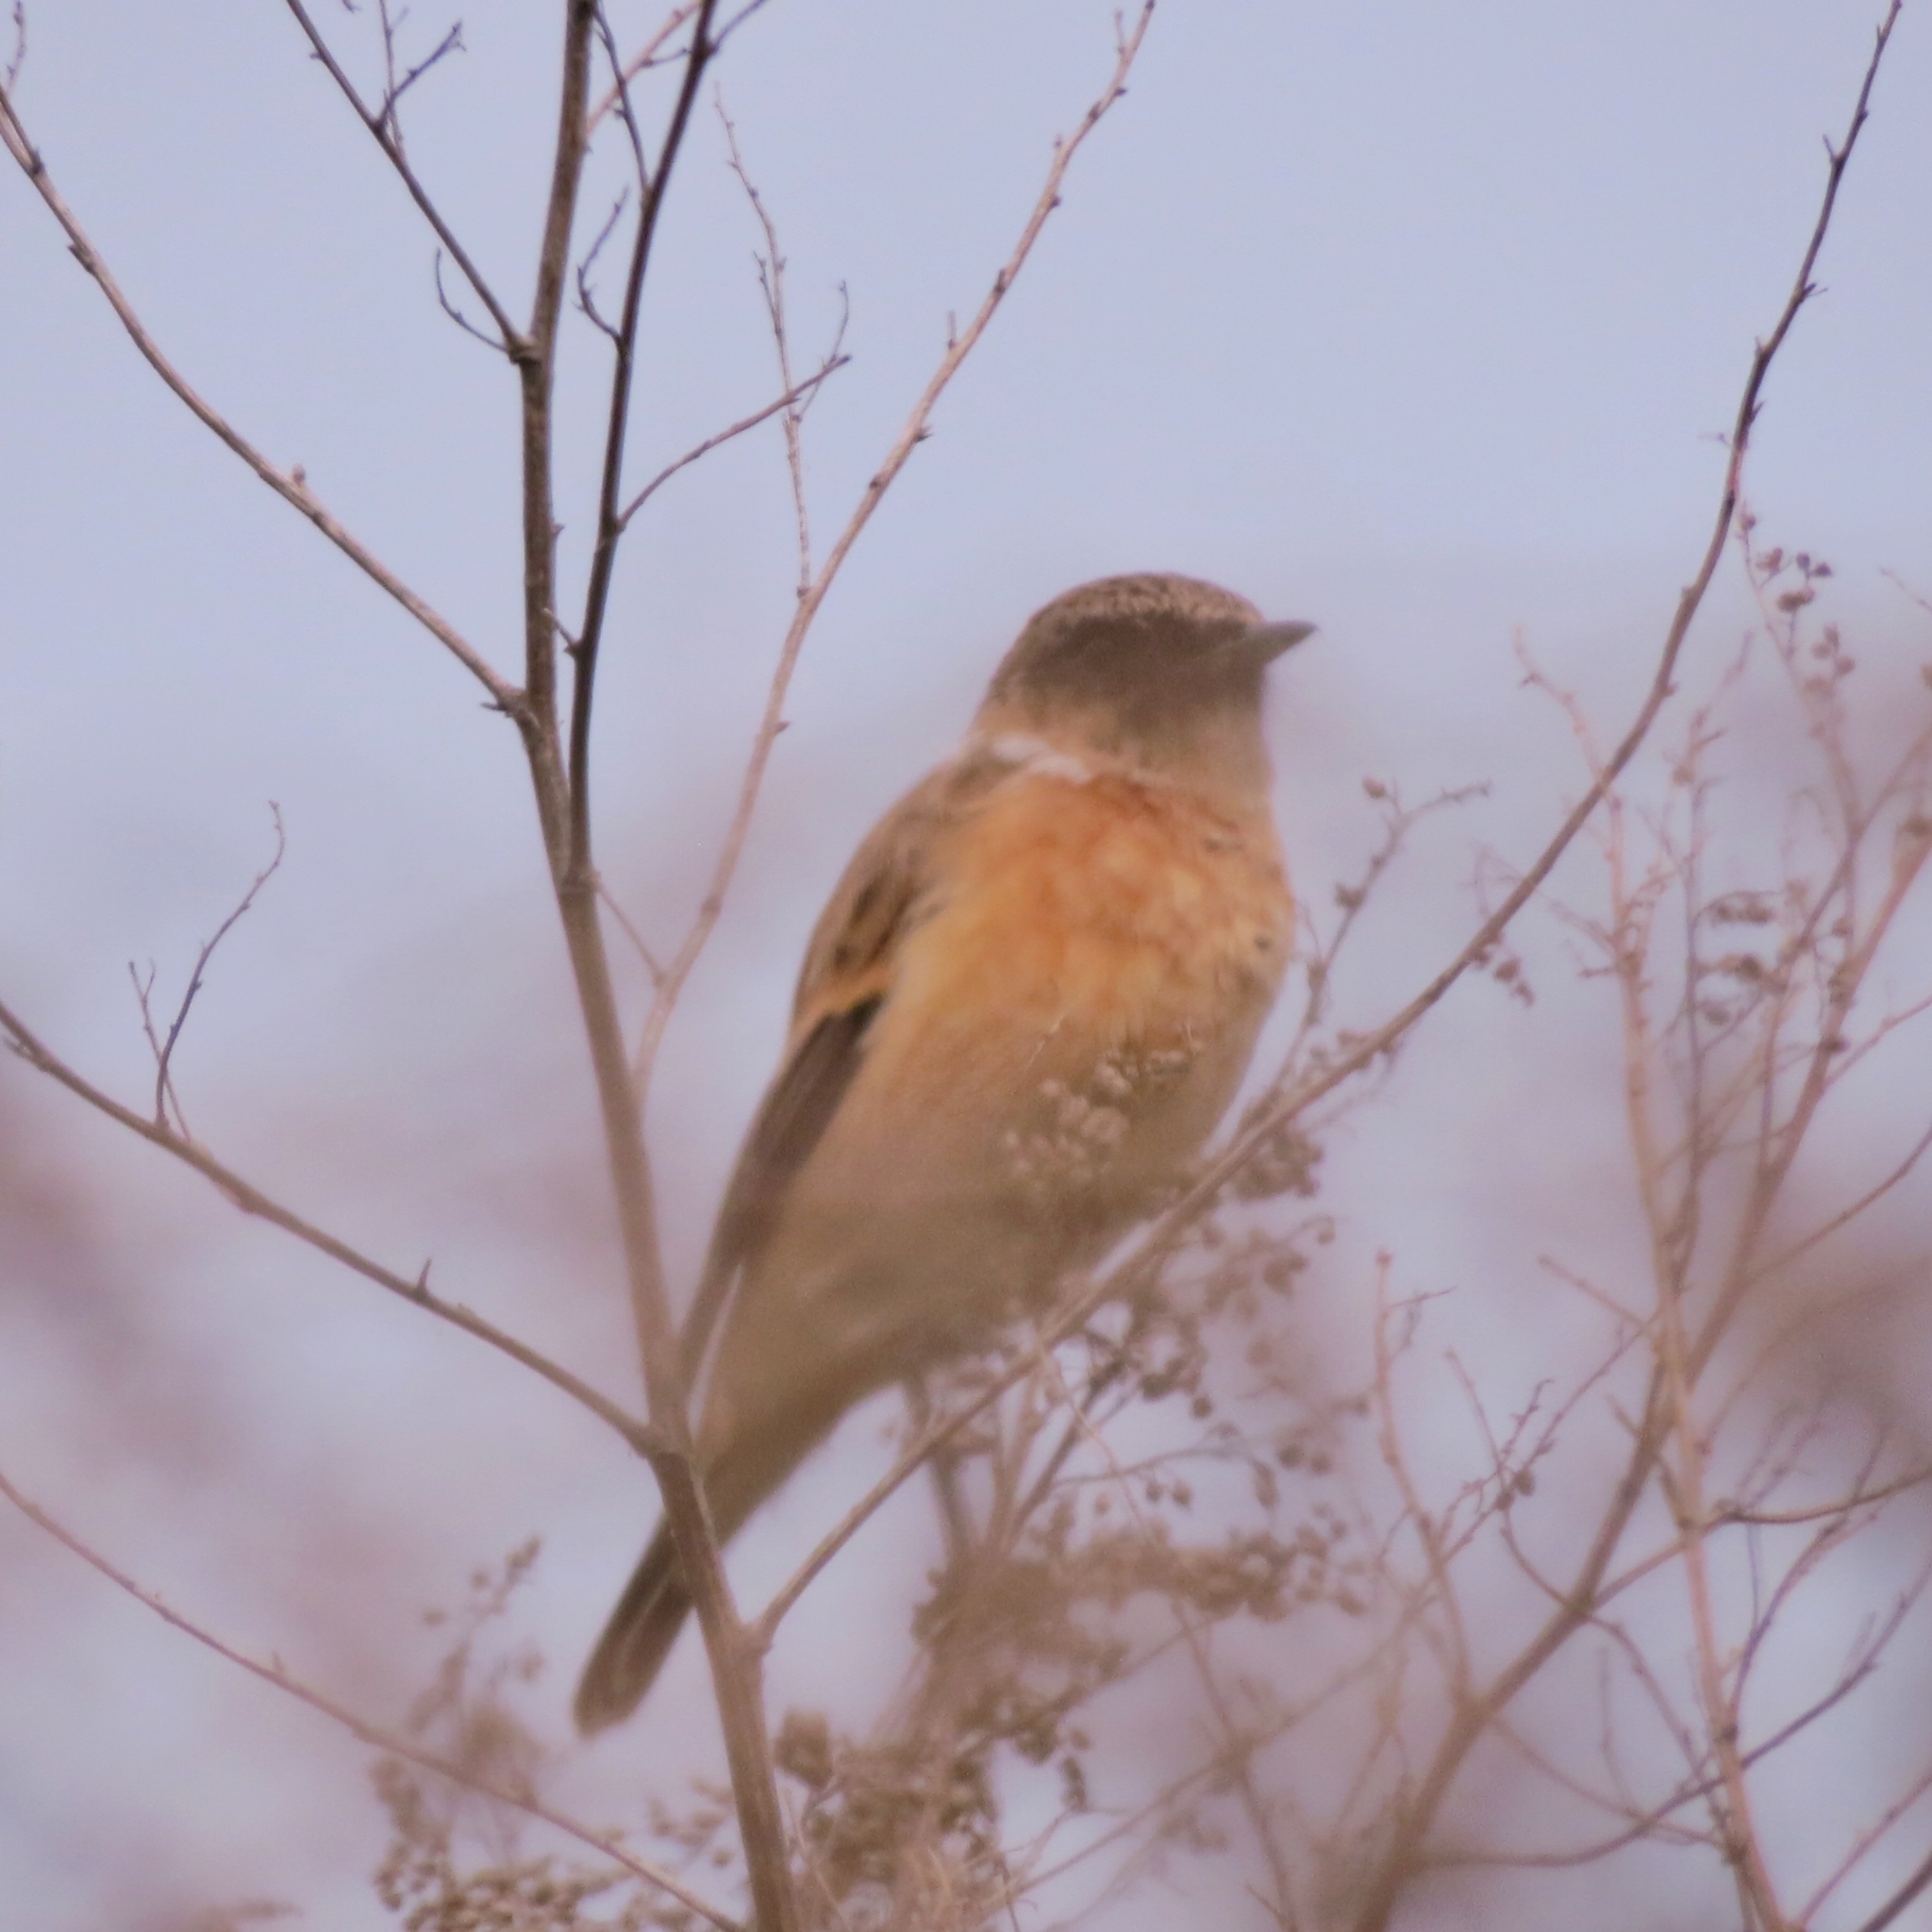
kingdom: Animalia
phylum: Chordata
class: Aves
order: Passeriformes
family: Muscicapidae
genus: Saxicola
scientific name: Saxicola maurus
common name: Siberian stonechat
